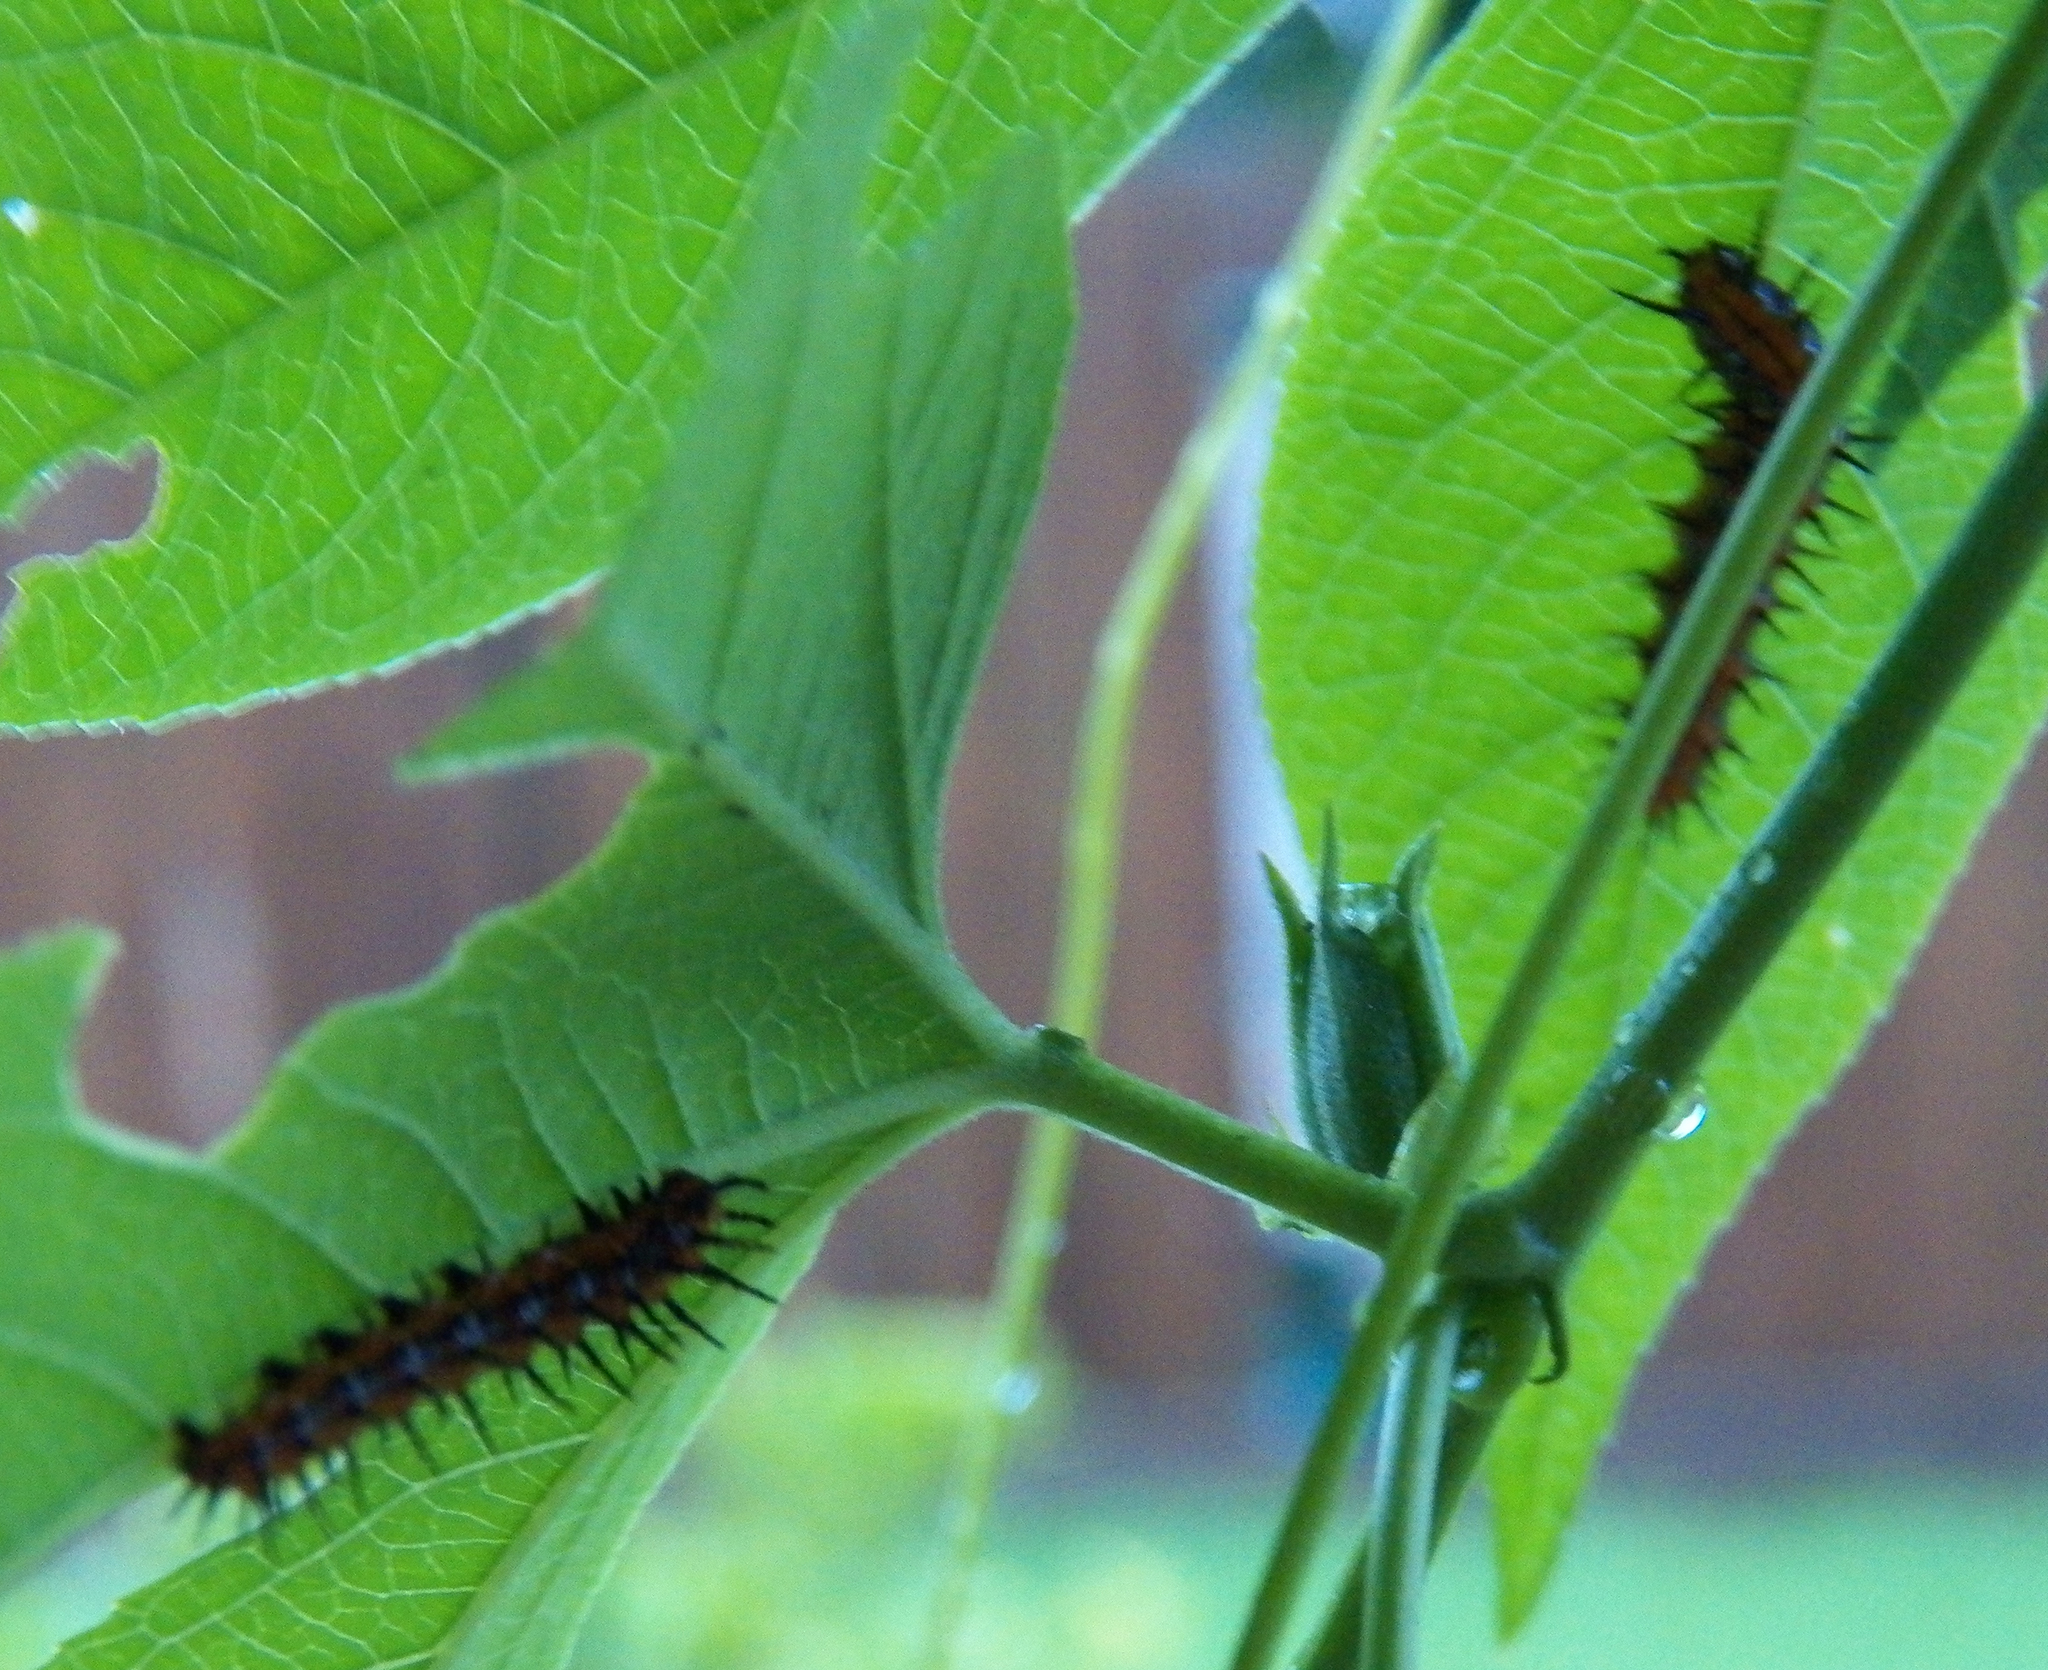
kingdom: Animalia
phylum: Arthropoda
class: Insecta
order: Lepidoptera
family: Nymphalidae
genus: Dione
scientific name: Dione vanillae
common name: Gulf fritillary
